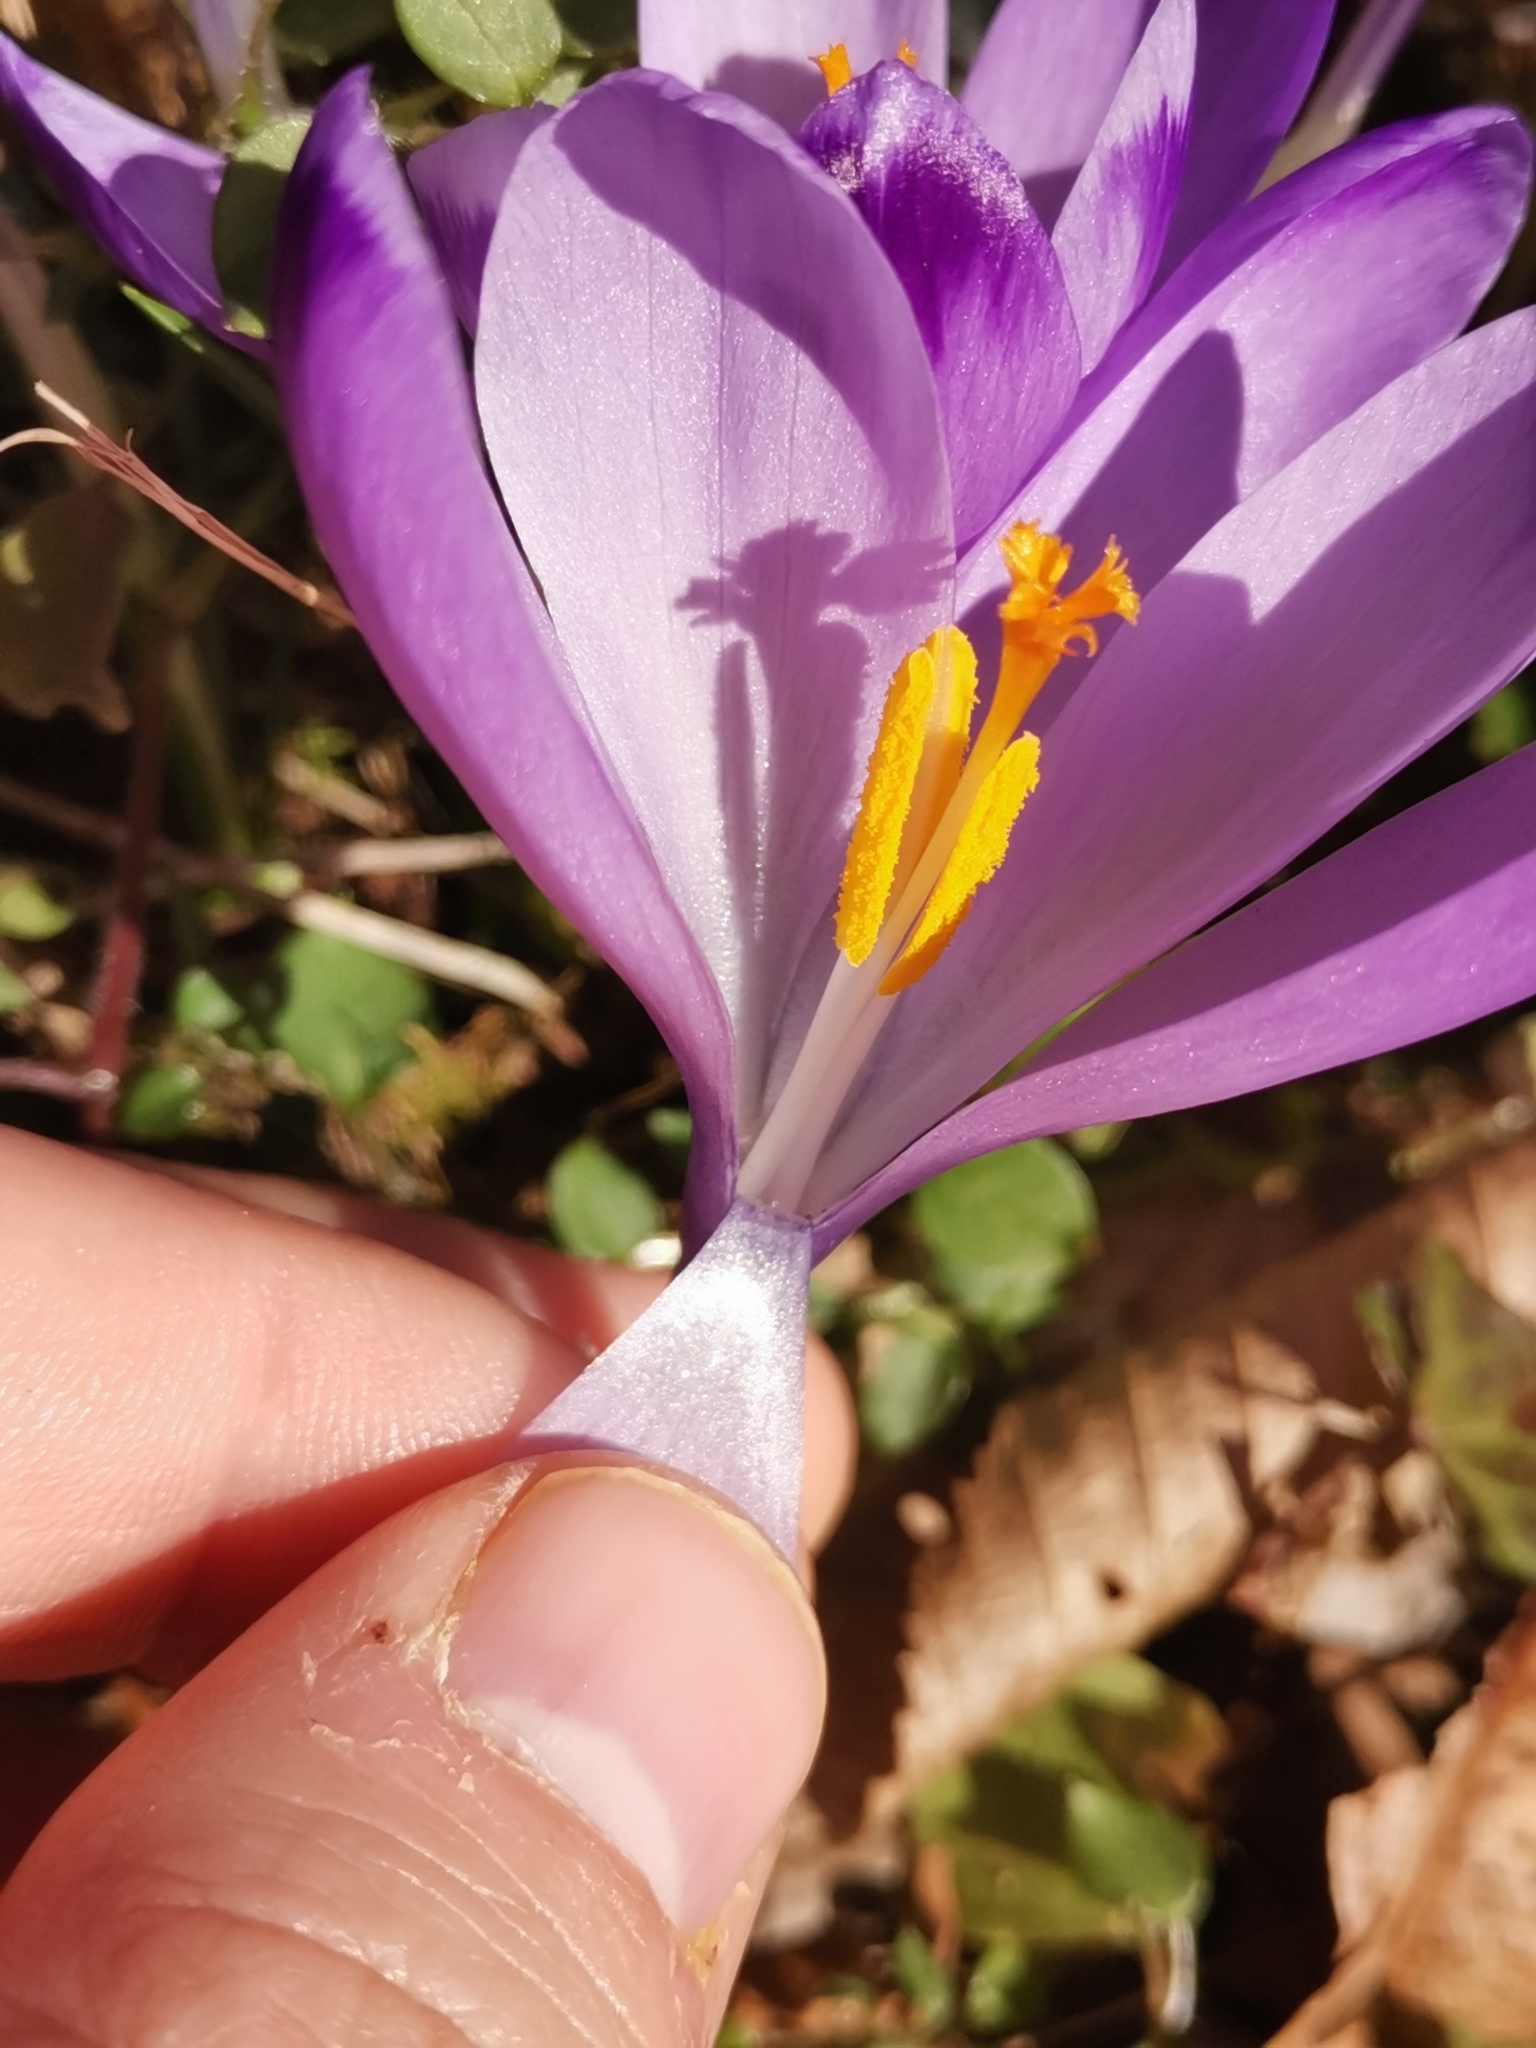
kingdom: Plantae
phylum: Tracheophyta
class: Liliopsida
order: Asparagales
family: Iridaceae
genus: Crocus
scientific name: Crocus heuffelianus
